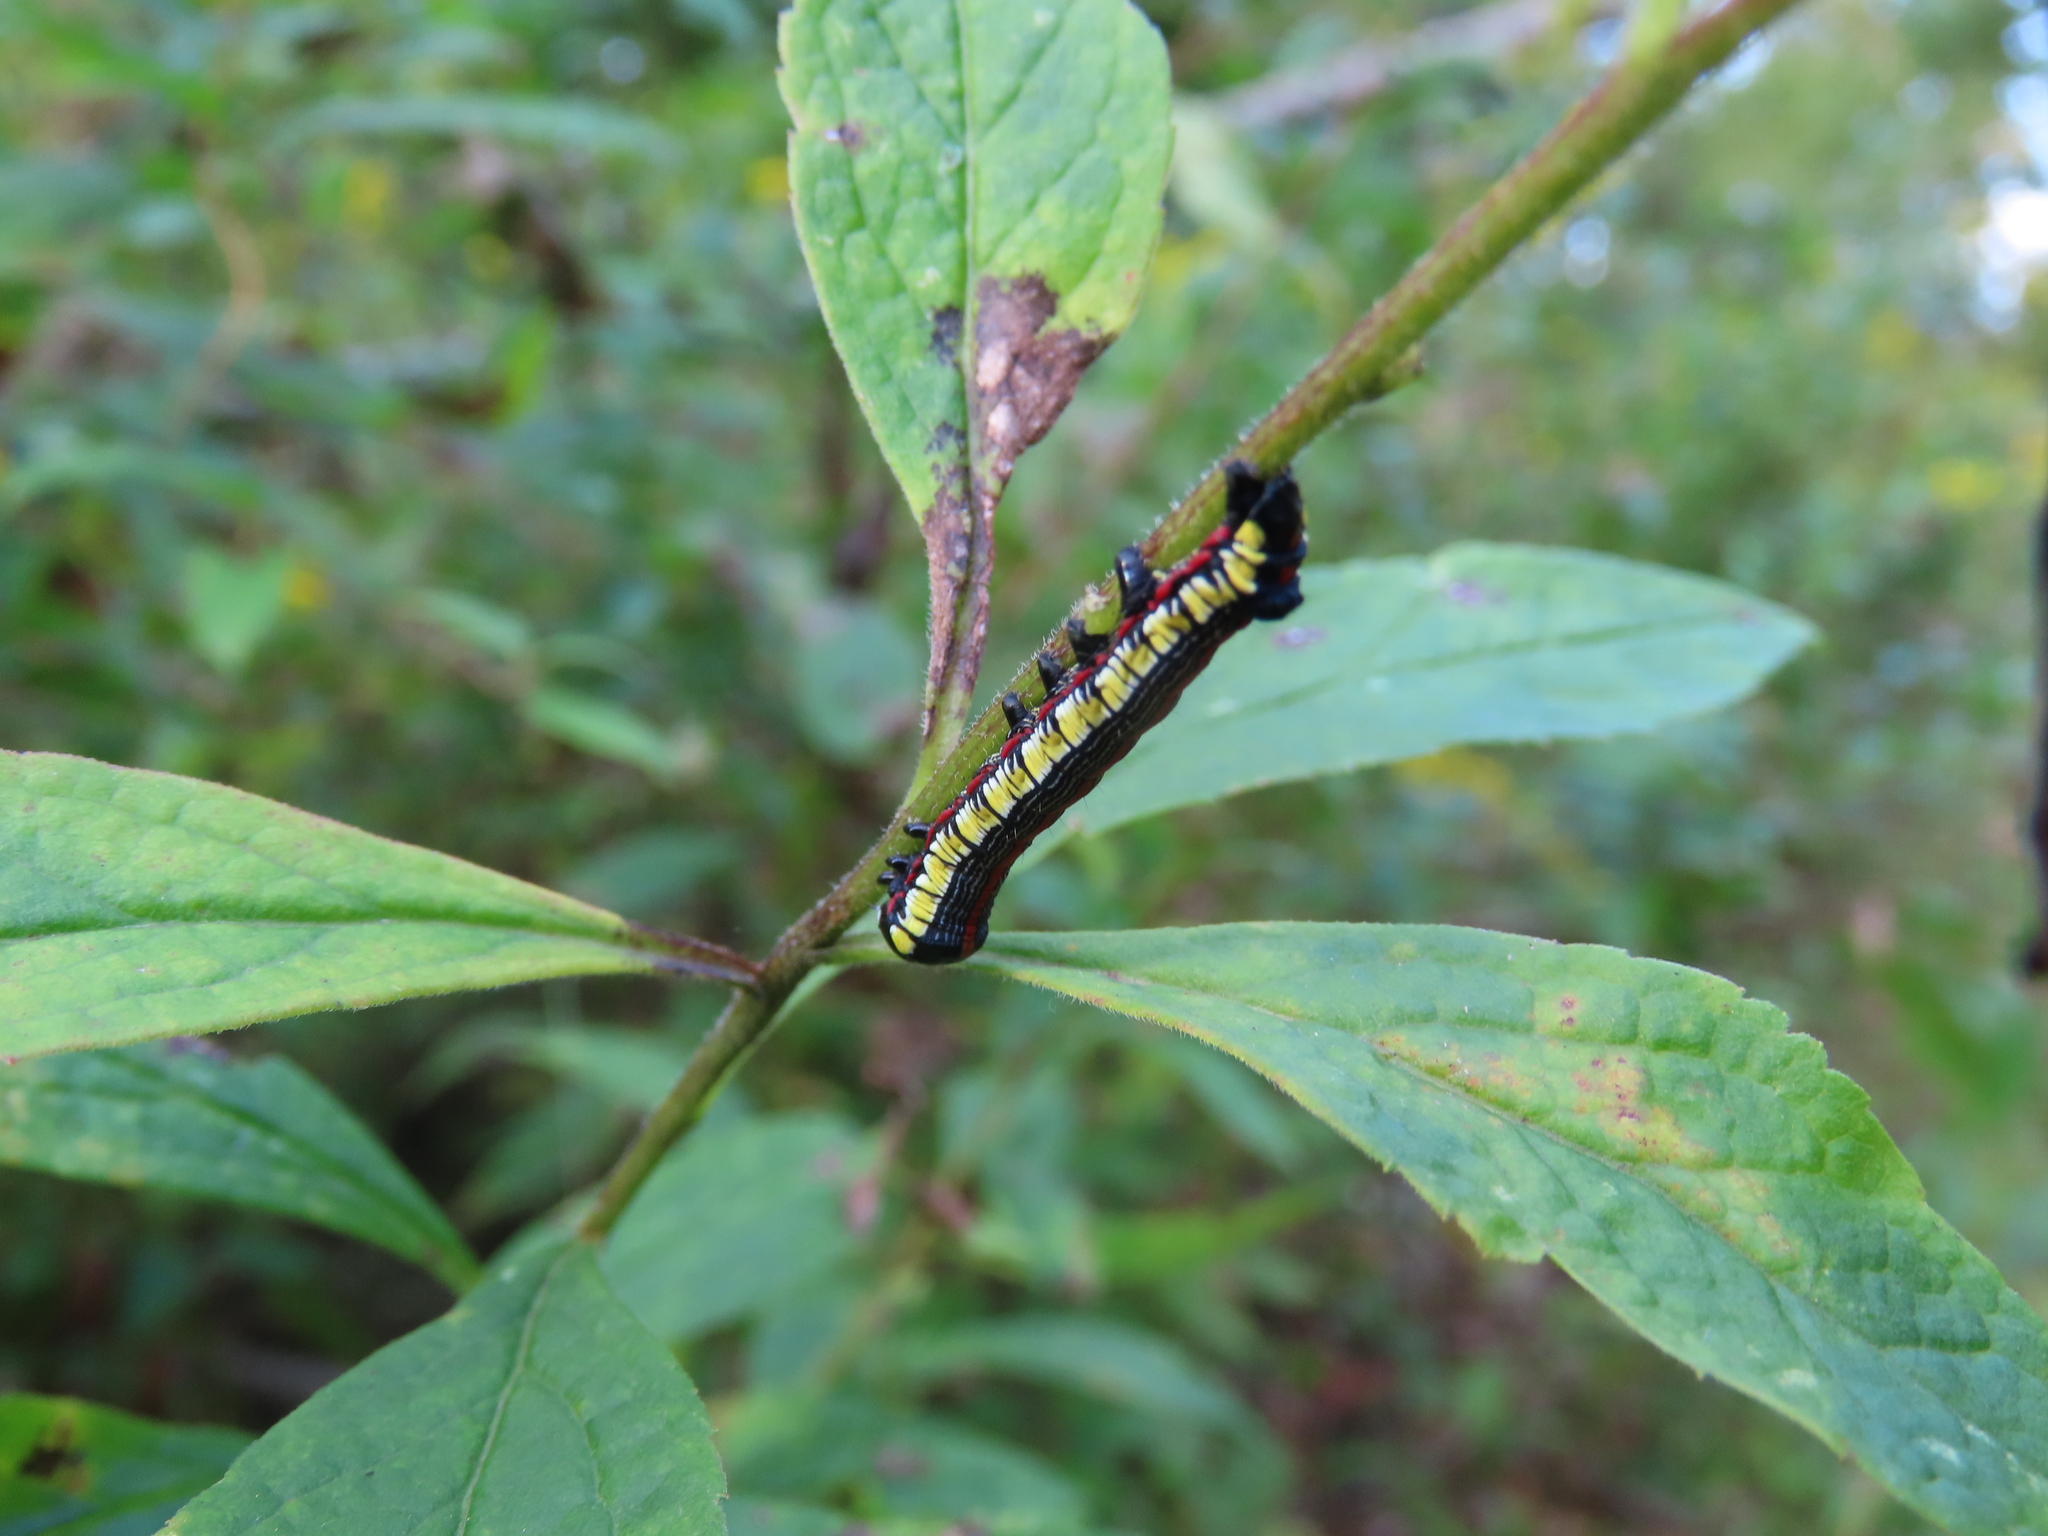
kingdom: Animalia
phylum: Arthropoda
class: Insecta
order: Lepidoptera
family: Noctuidae
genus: Cucullia
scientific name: Cucullia convexipennis
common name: Brown-hooded owlet
